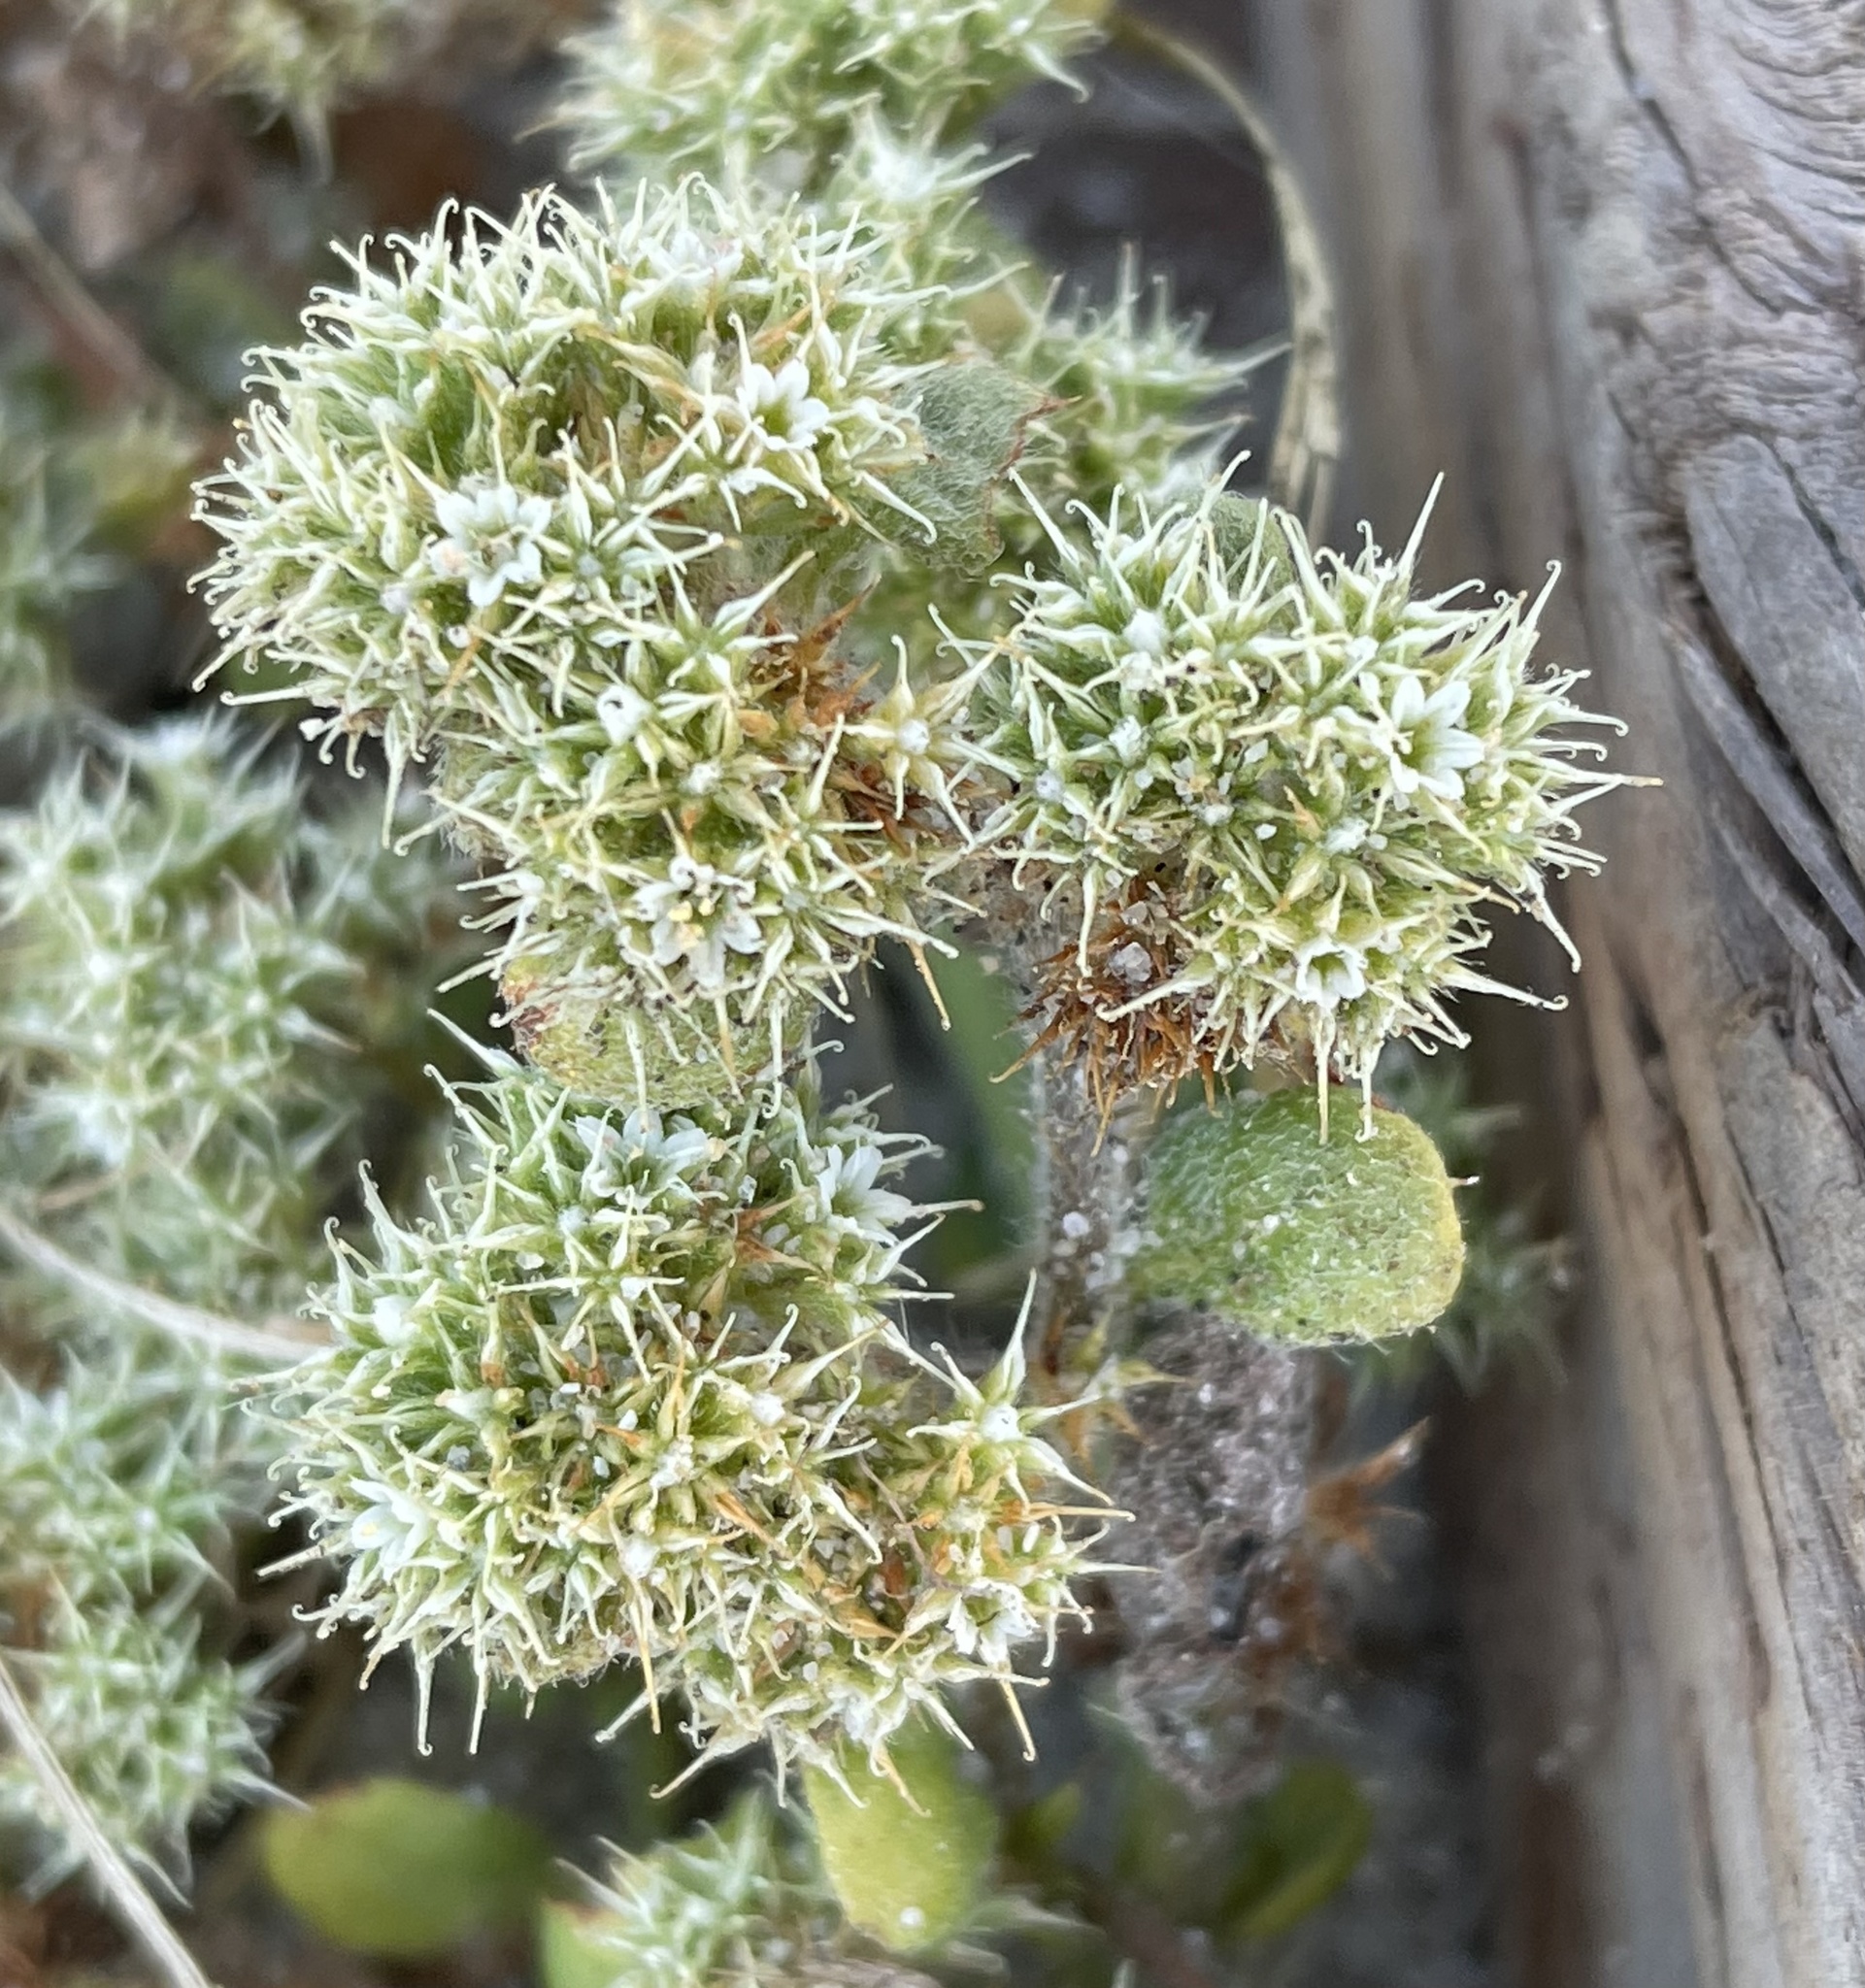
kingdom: Plantae
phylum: Tracheophyta
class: Magnoliopsida
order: Caryophyllales
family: Polygonaceae
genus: Chorizanthe
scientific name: Chorizanthe pungens
